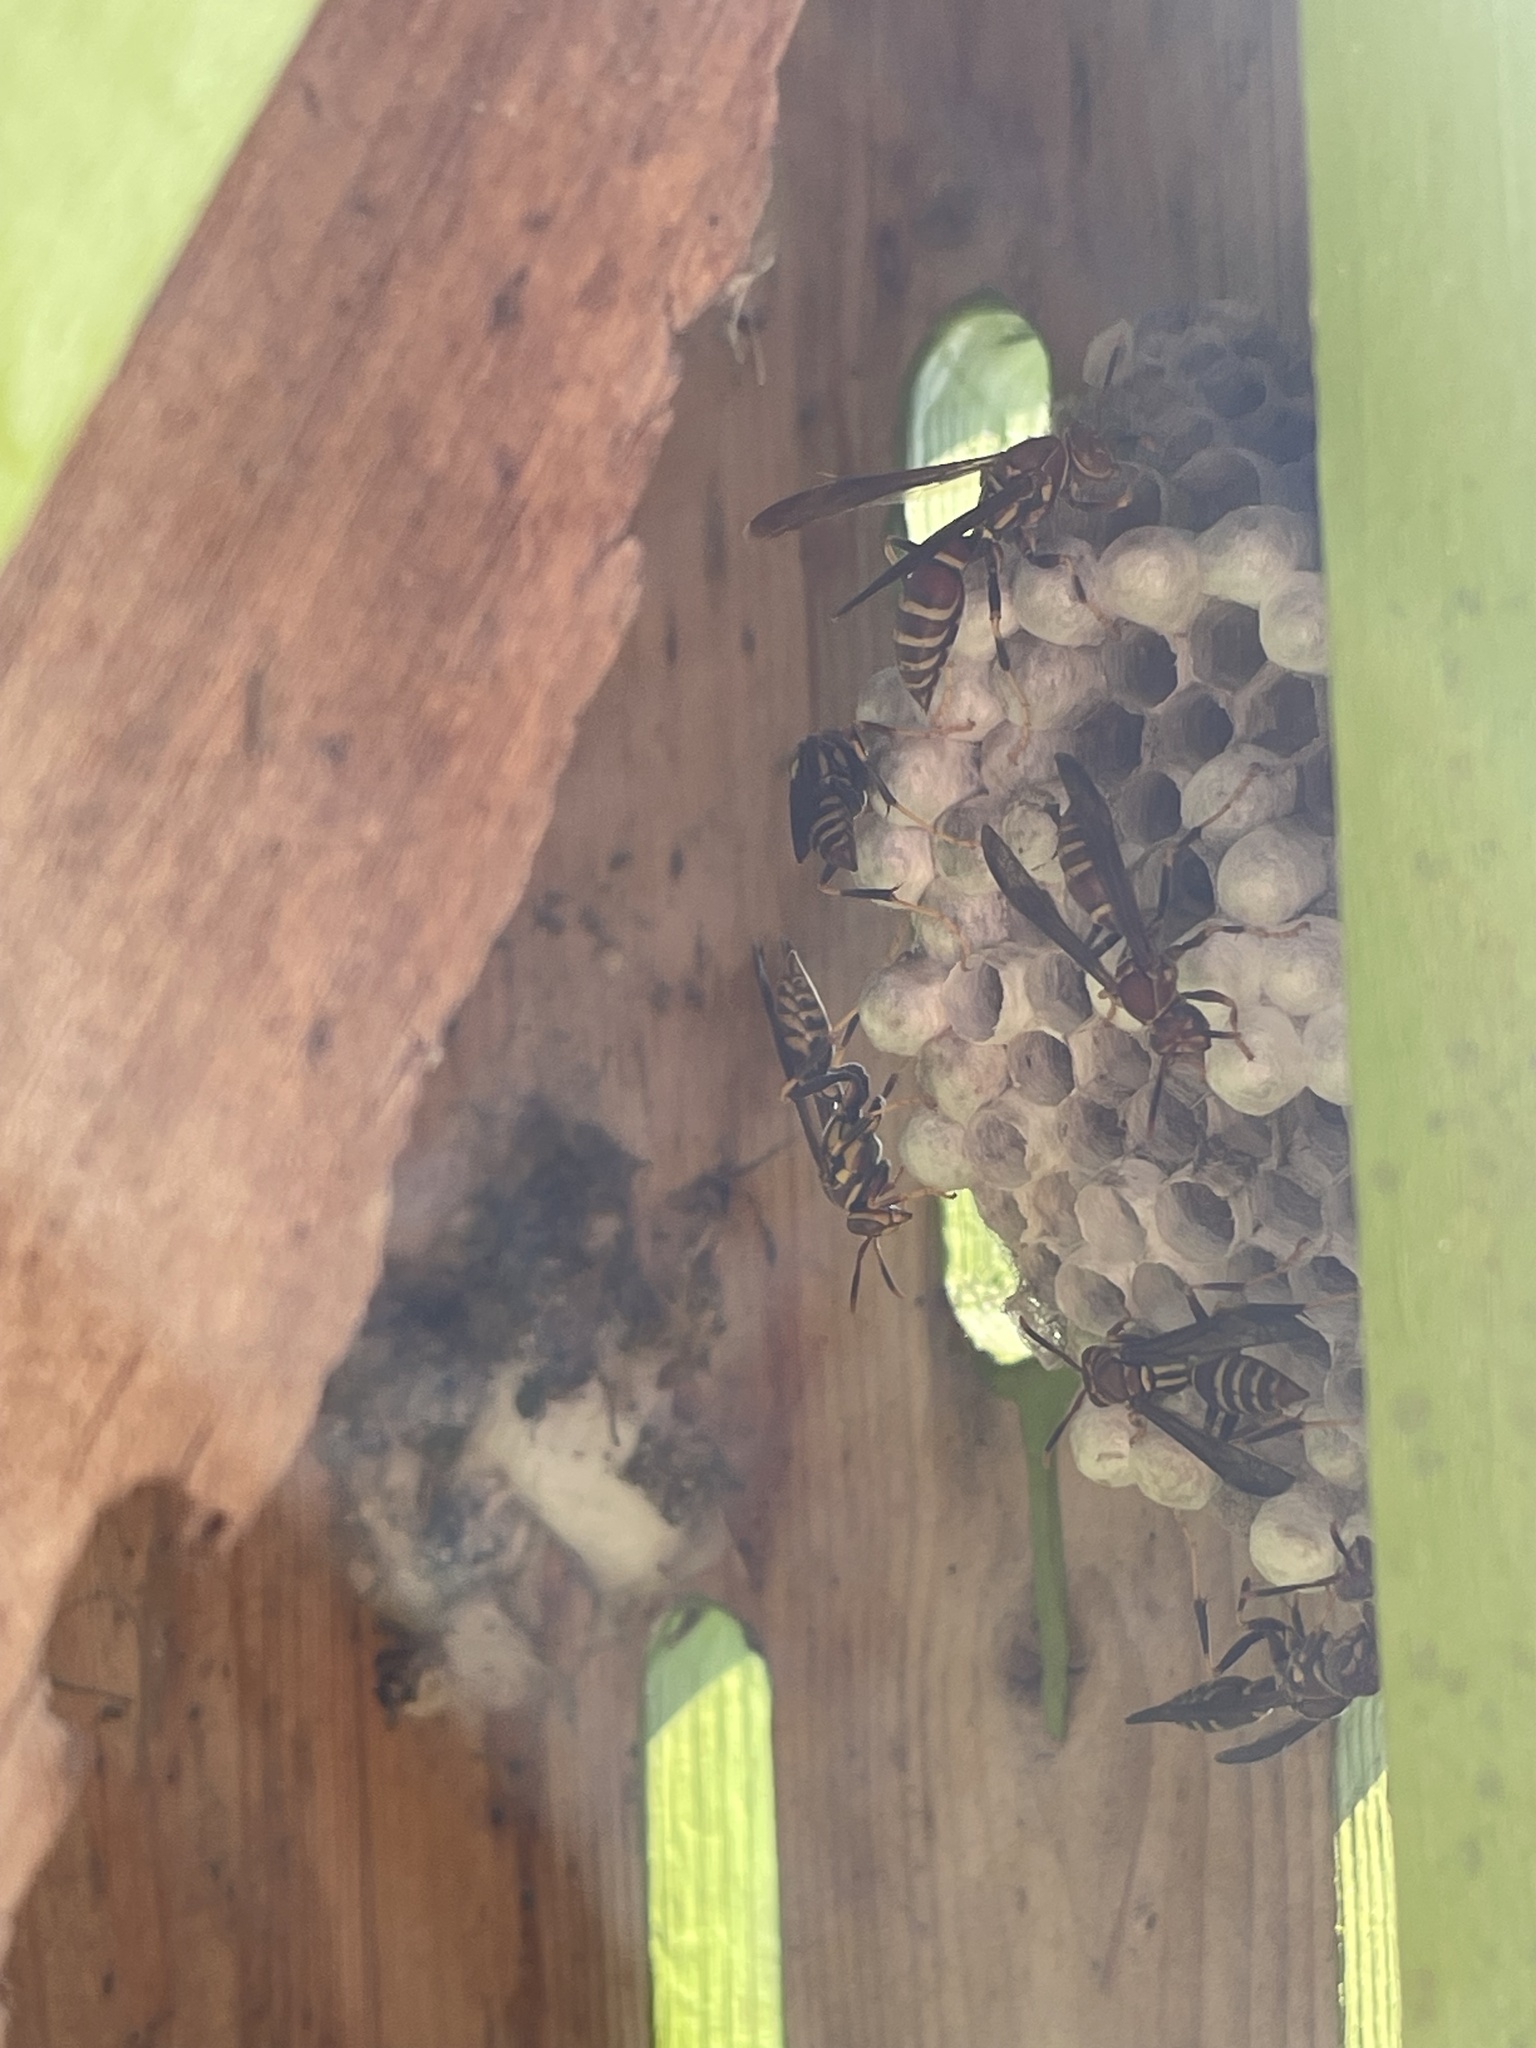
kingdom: Animalia
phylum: Arthropoda
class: Insecta
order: Hymenoptera
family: Eumenidae
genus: Polistes
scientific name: Polistes exclamans
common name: Paper wasp
